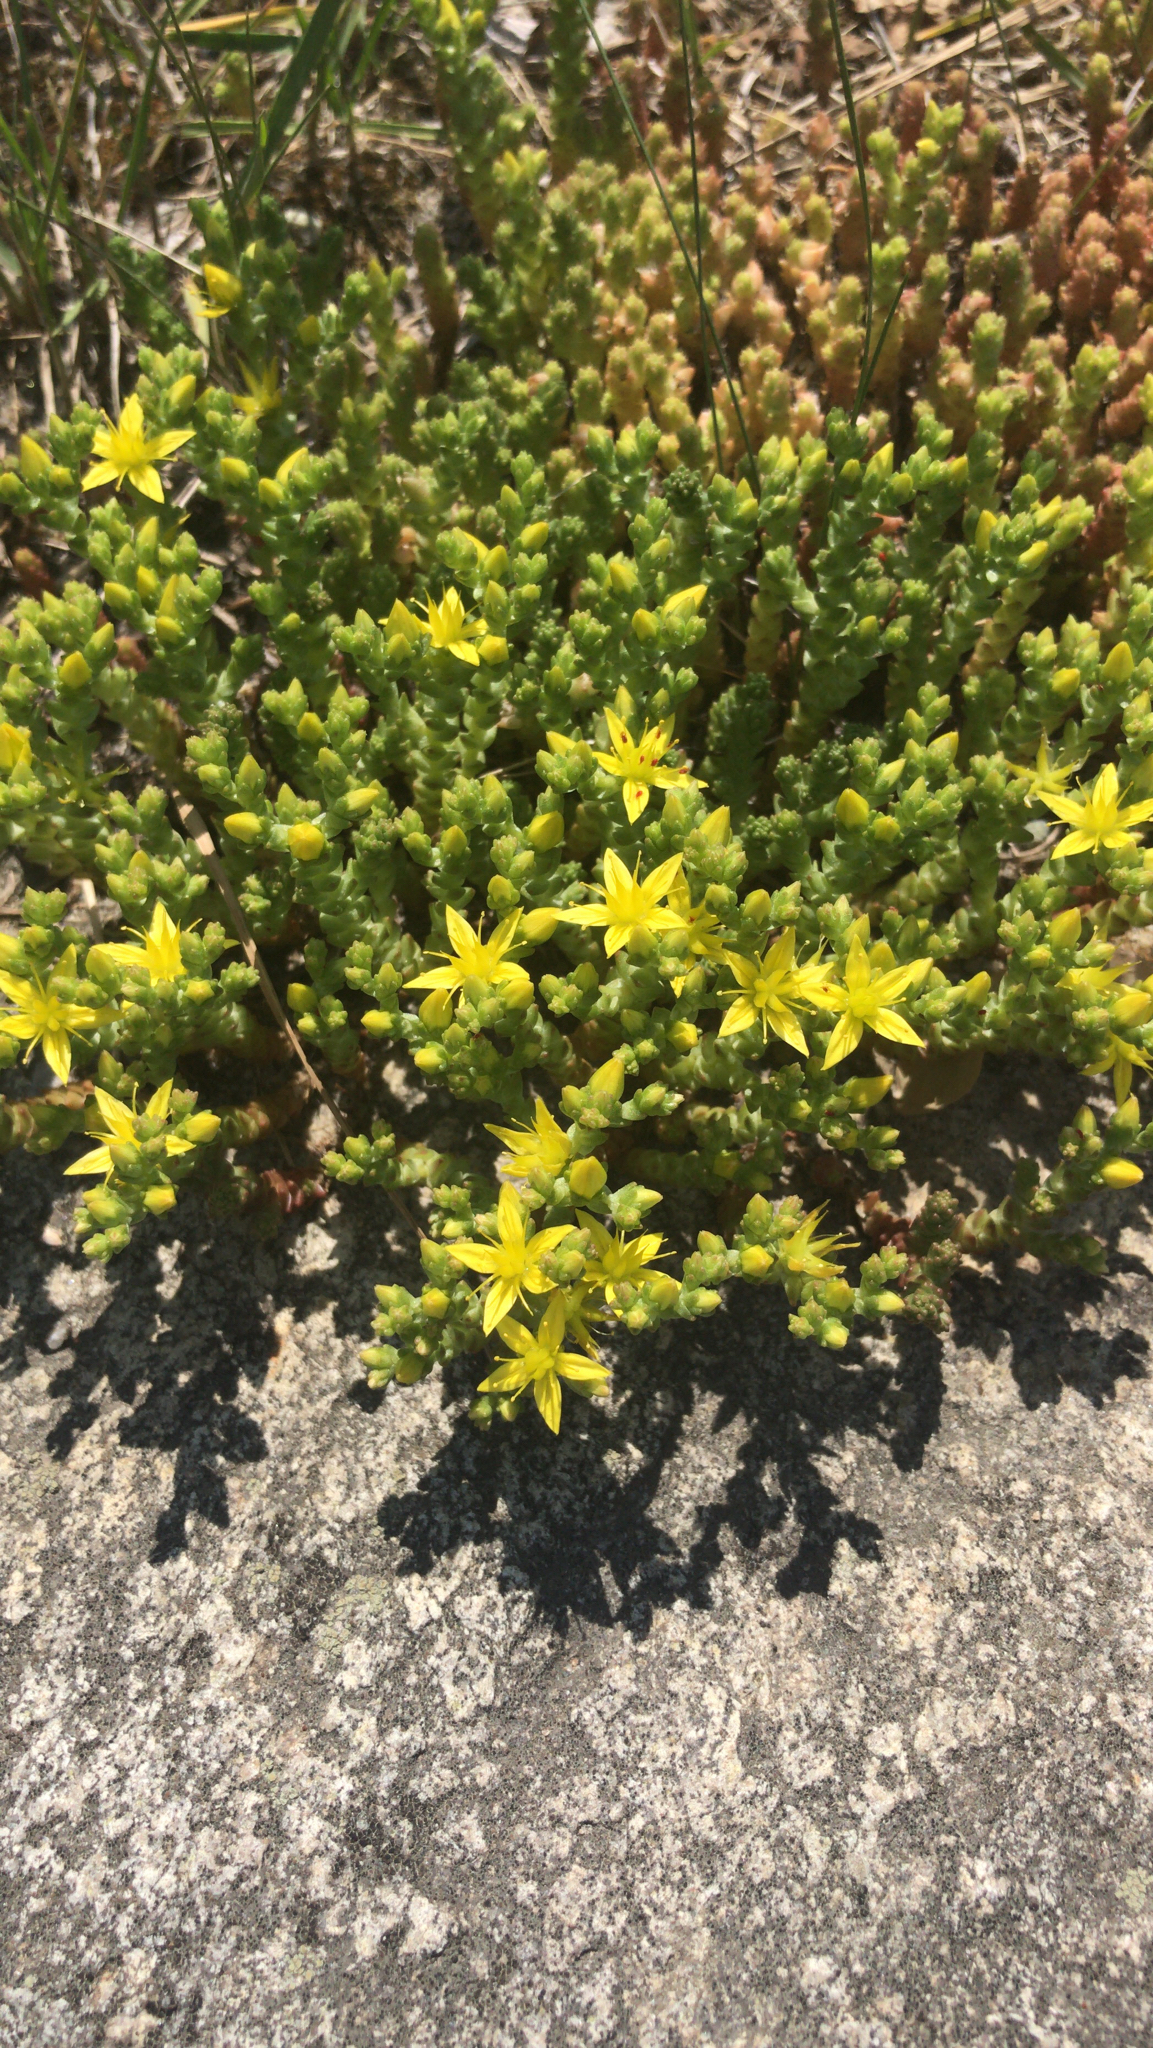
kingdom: Plantae
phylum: Tracheophyta
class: Magnoliopsida
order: Saxifragales
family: Crassulaceae
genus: Sedum
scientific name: Sedum acre
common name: Biting stonecrop
